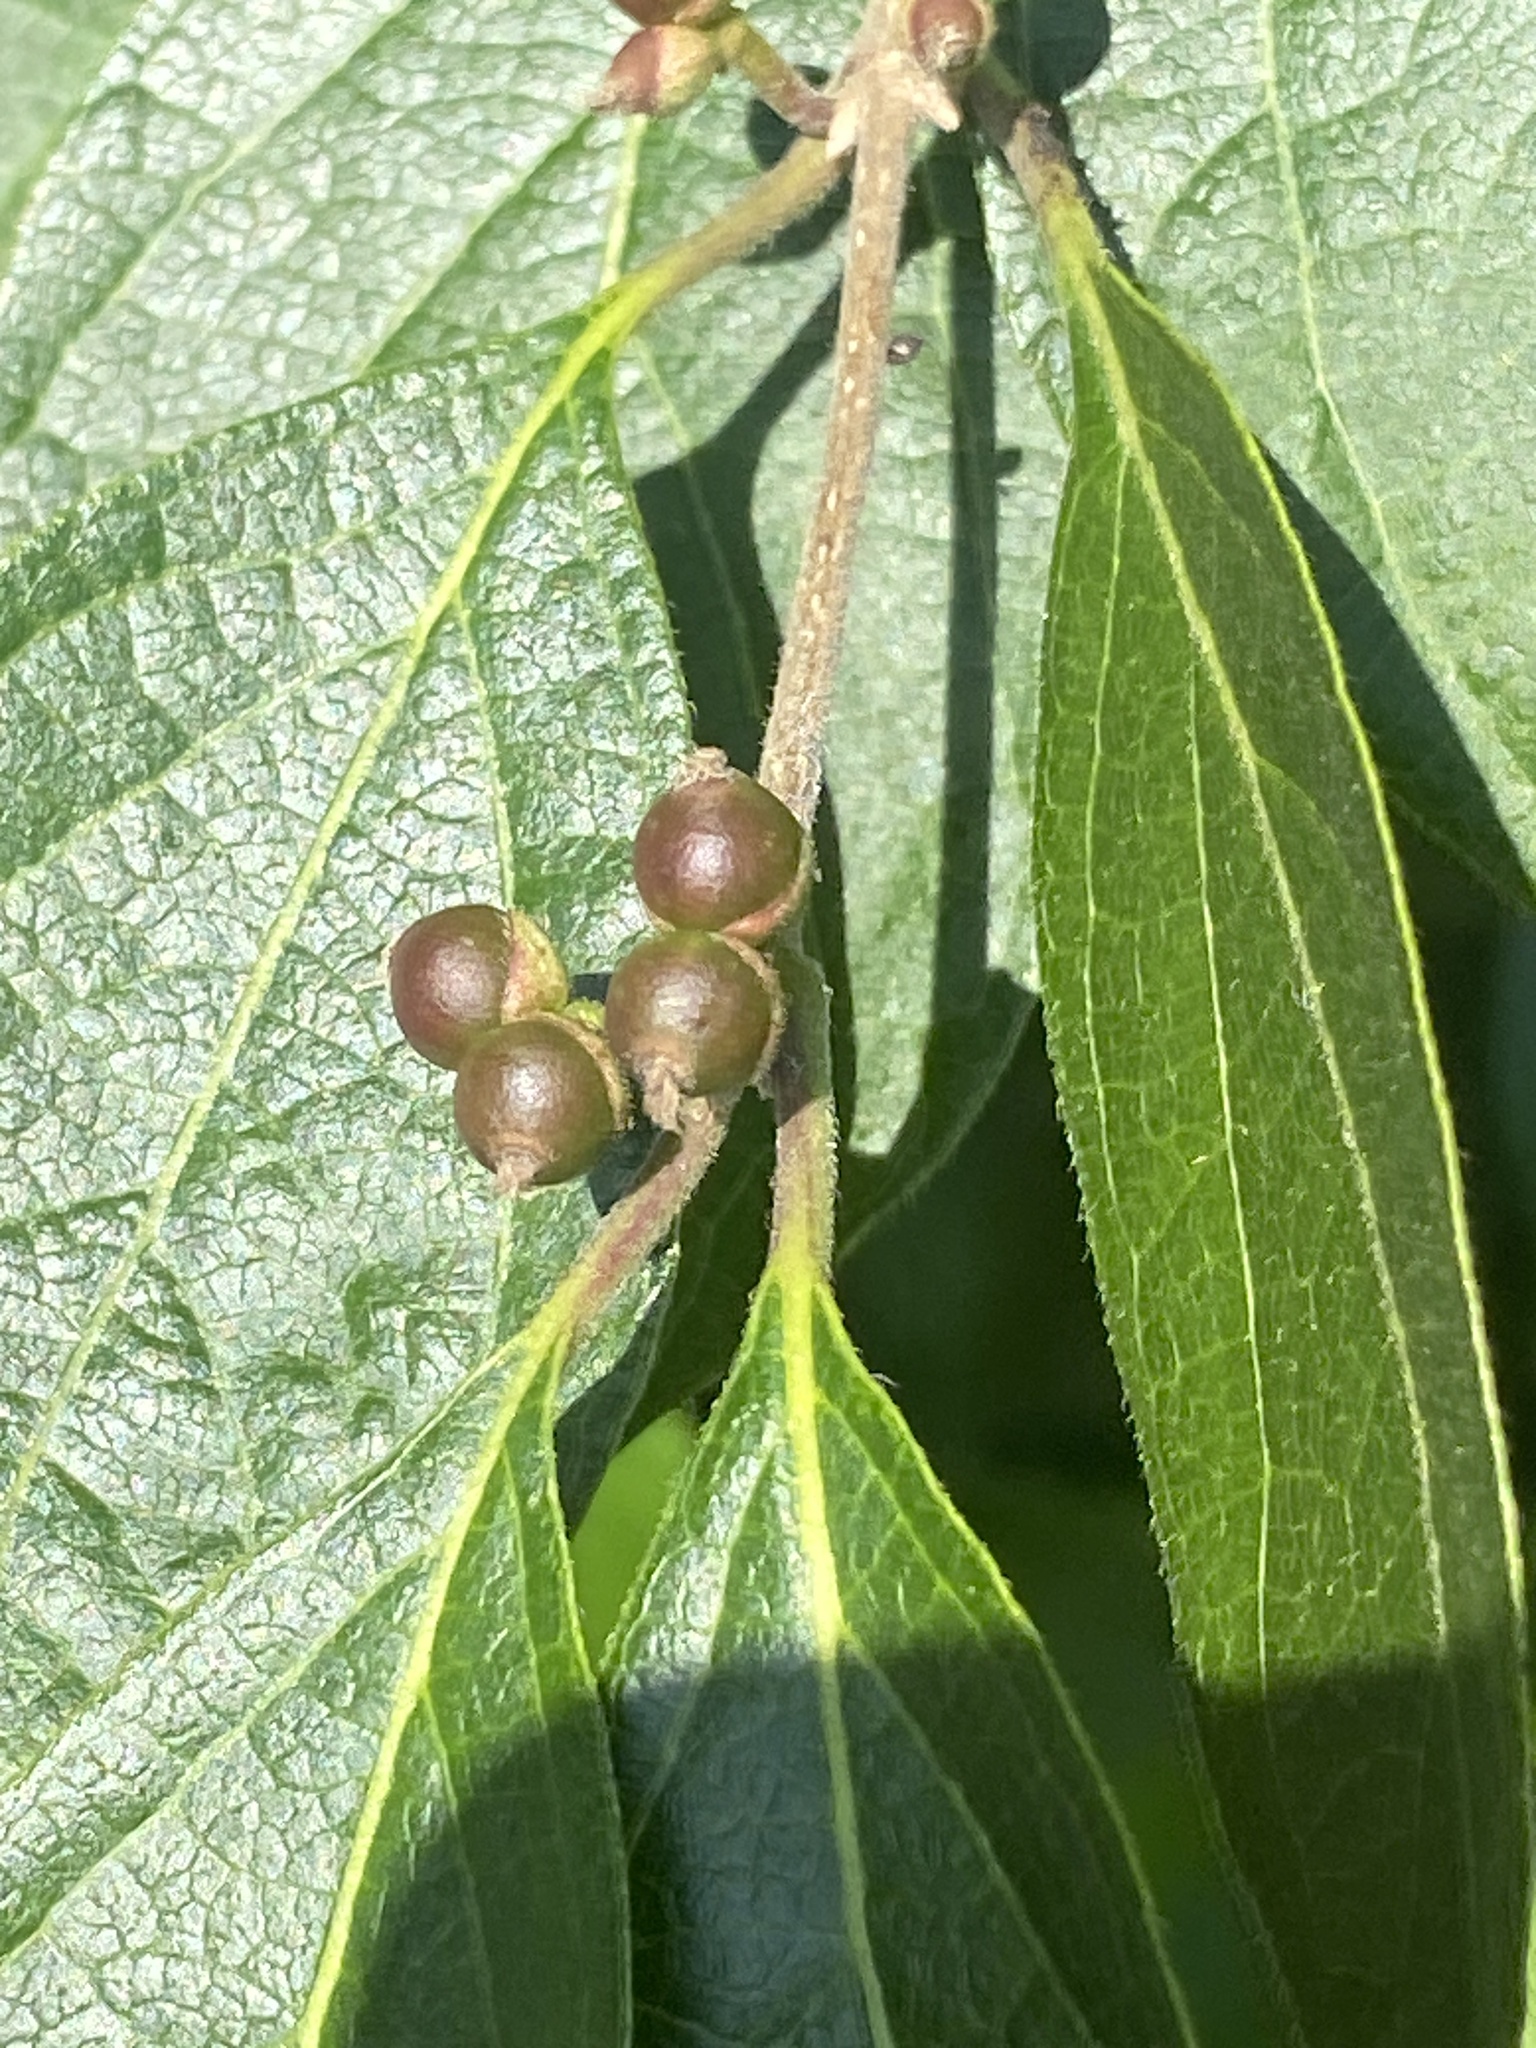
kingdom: Plantae
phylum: Tracheophyta
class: Magnoliopsida
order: Dipsacales
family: Caprifoliaceae
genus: Lonicera
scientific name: Lonicera maackii
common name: Amur honeysuckle
